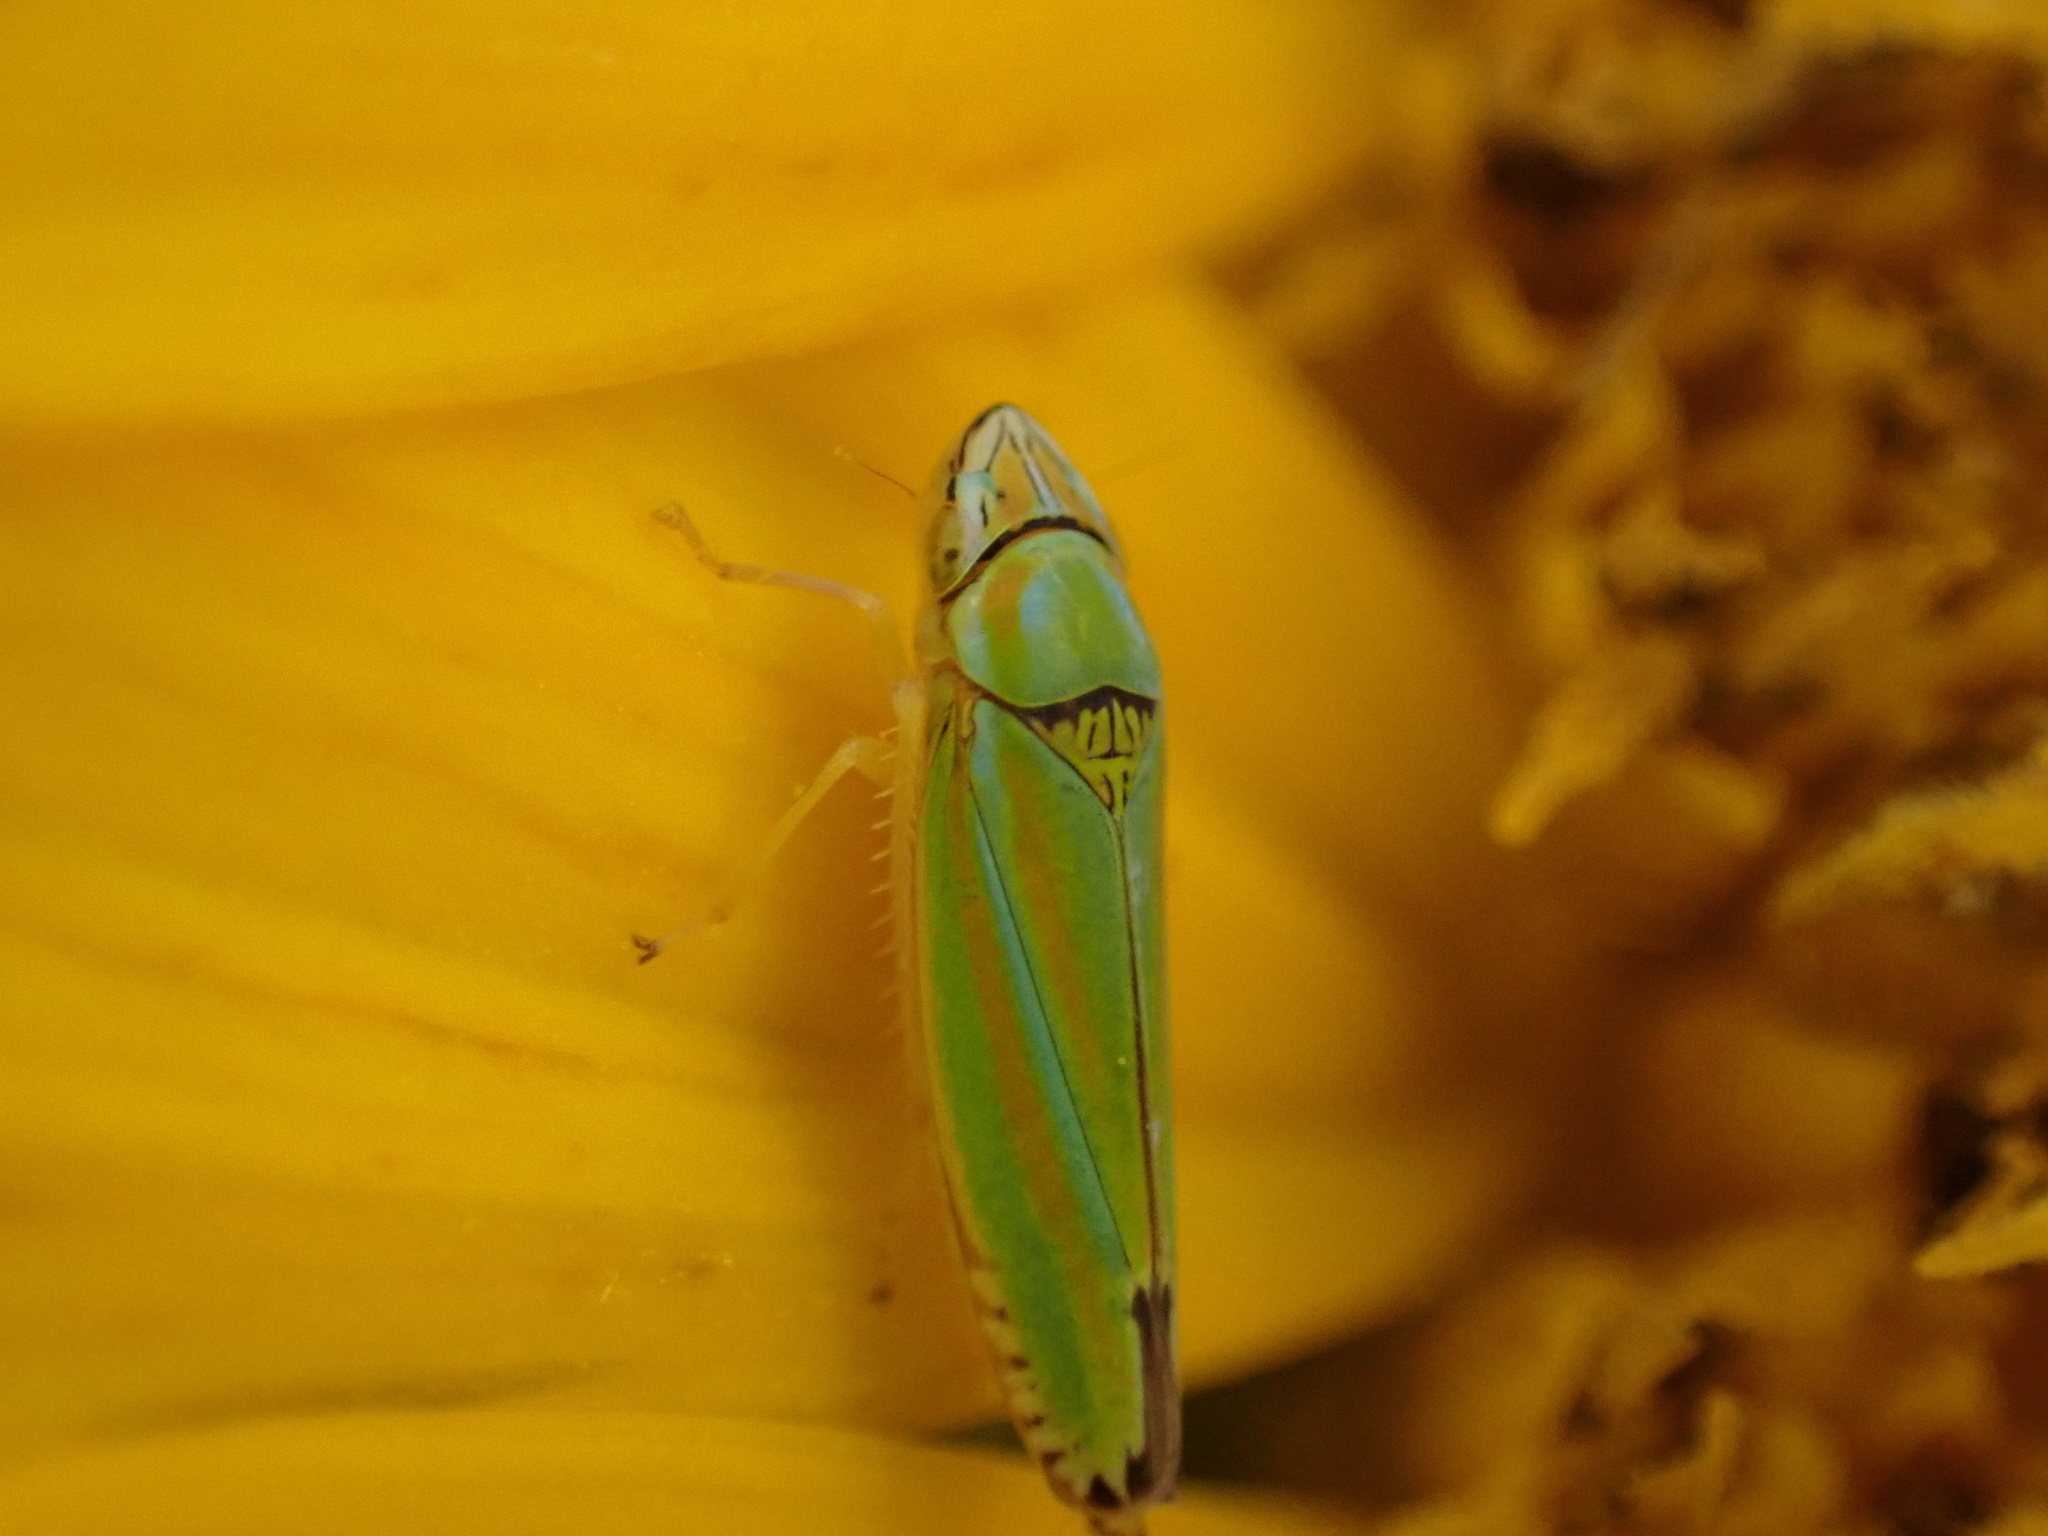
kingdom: Animalia
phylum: Arthropoda
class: Insecta
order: Hemiptera
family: Cicadellidae
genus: Graphocephala
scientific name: Graphocephala versuta
